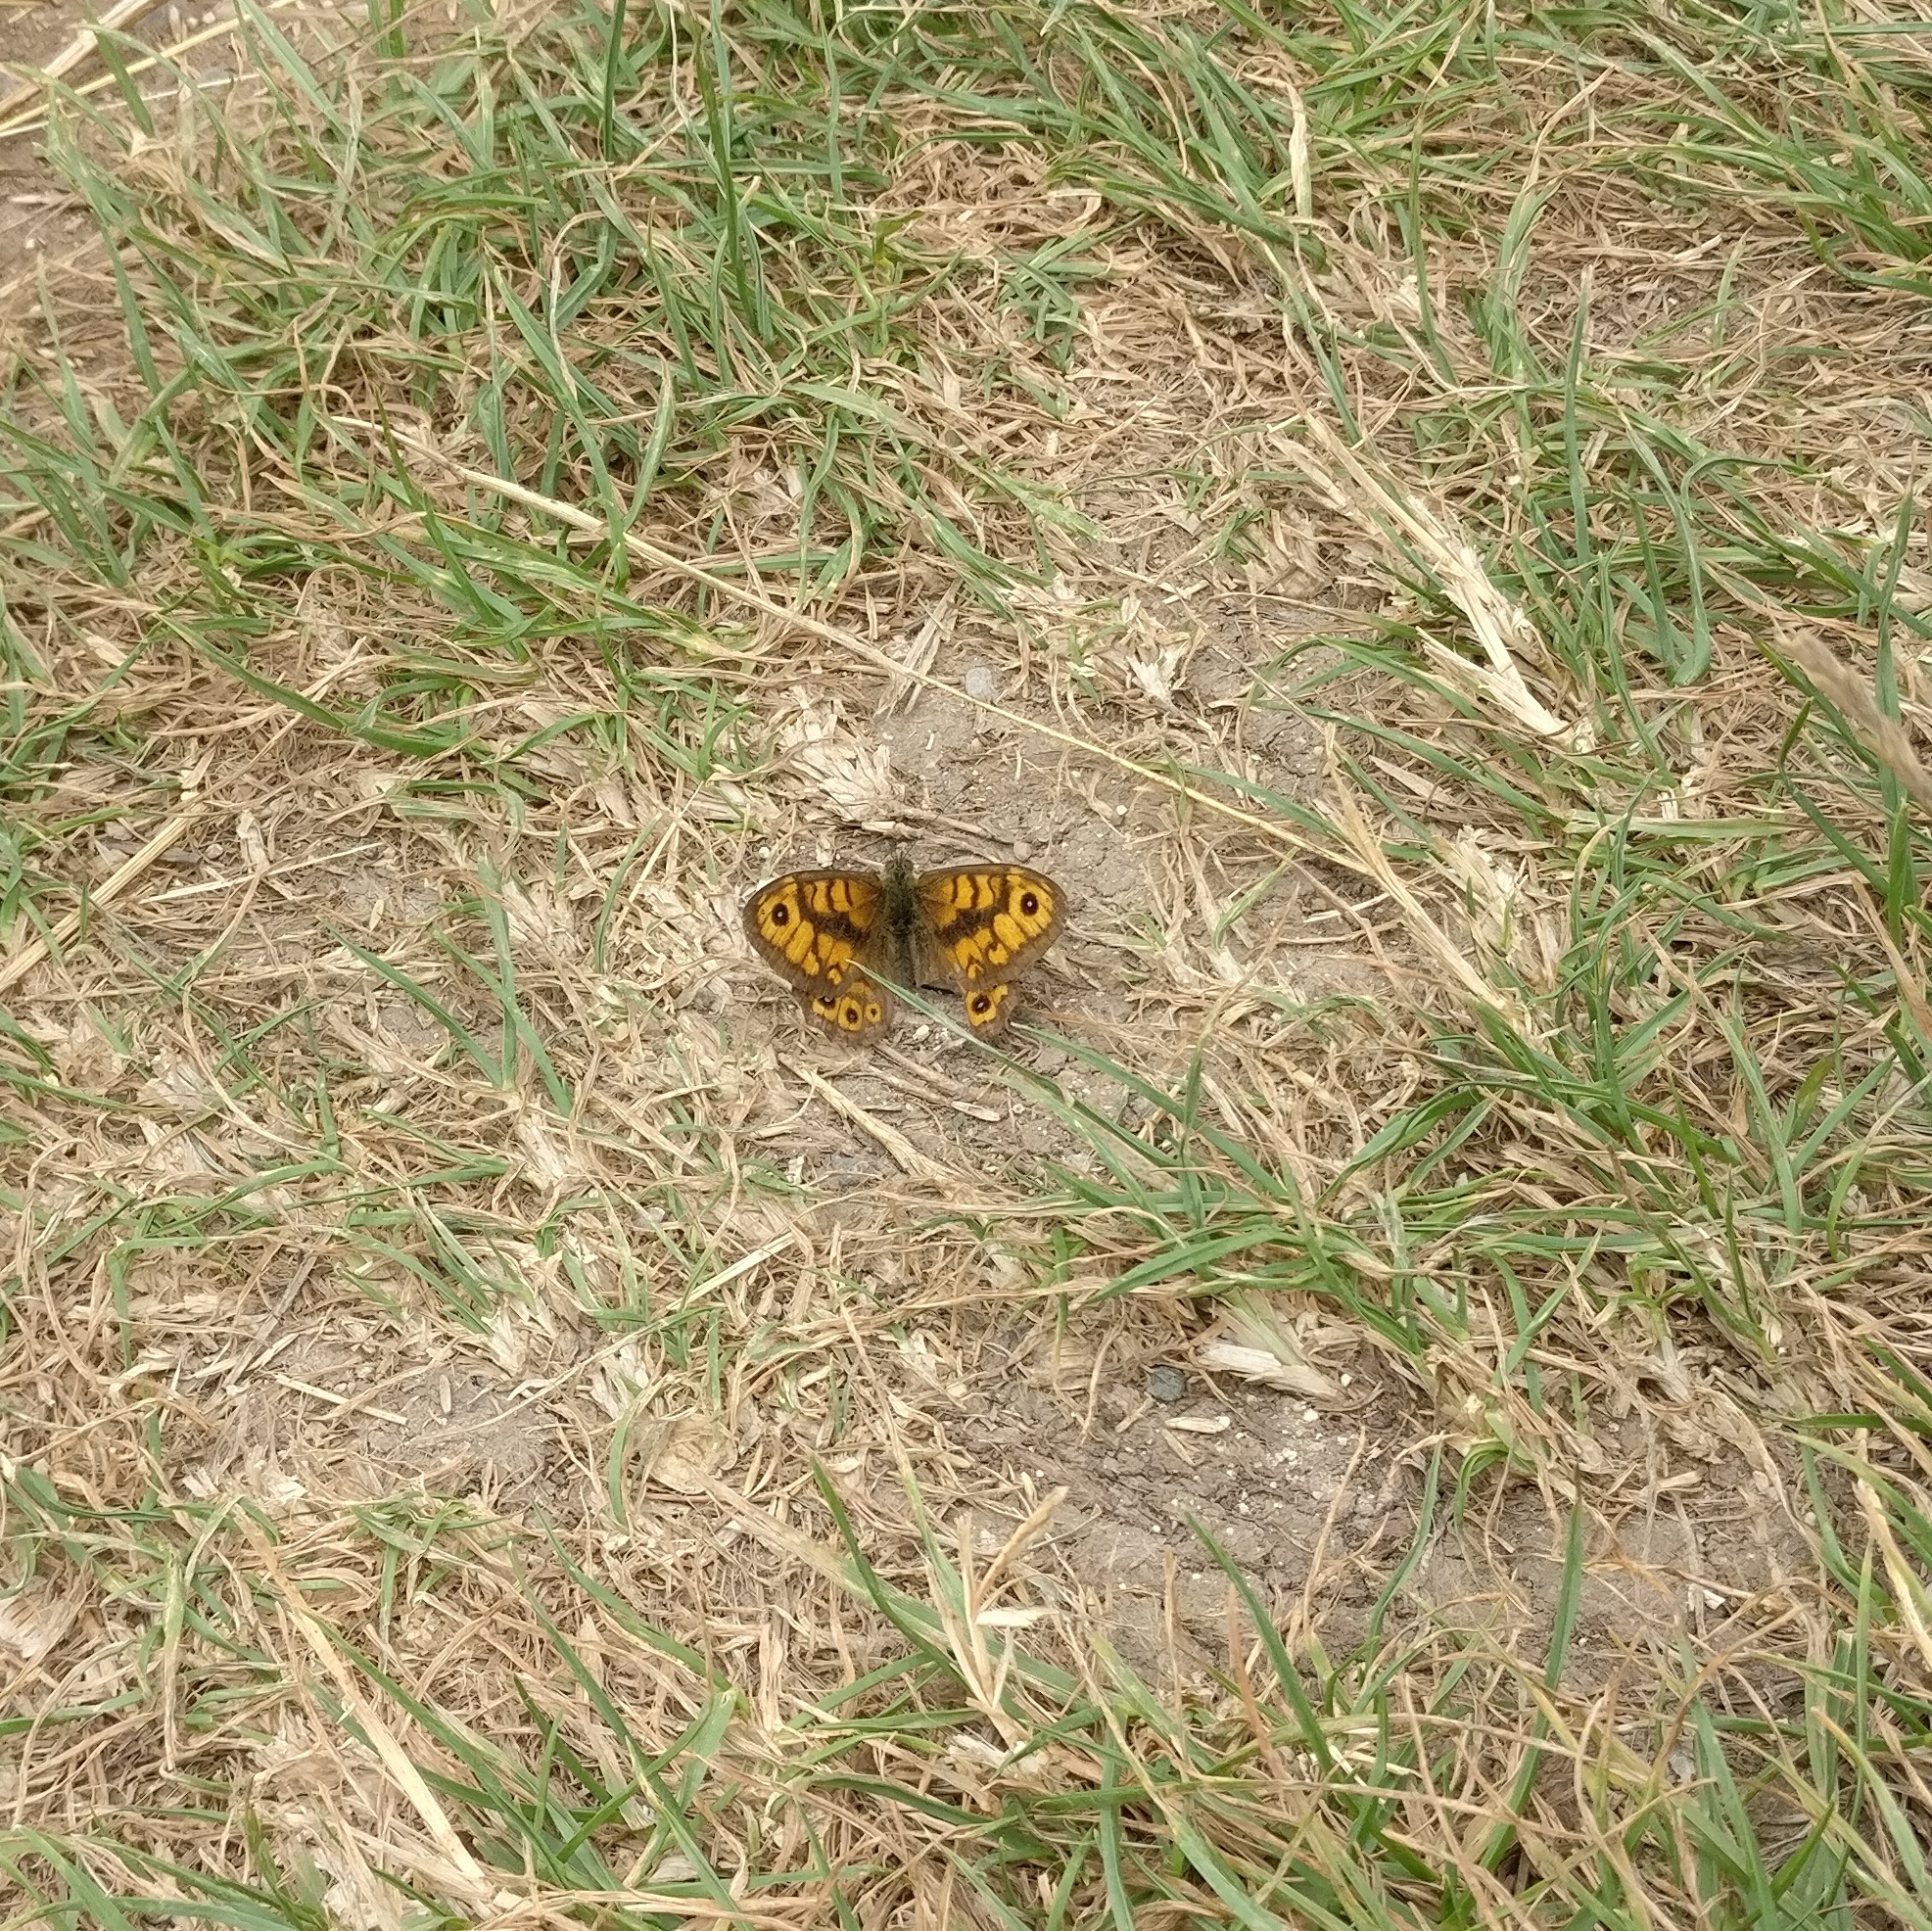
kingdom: Animalia
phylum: Arthropoda
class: Insecta
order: Lepidoptera
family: Nymphalidae
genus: Pararge
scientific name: Pararge Lasiommata megera
